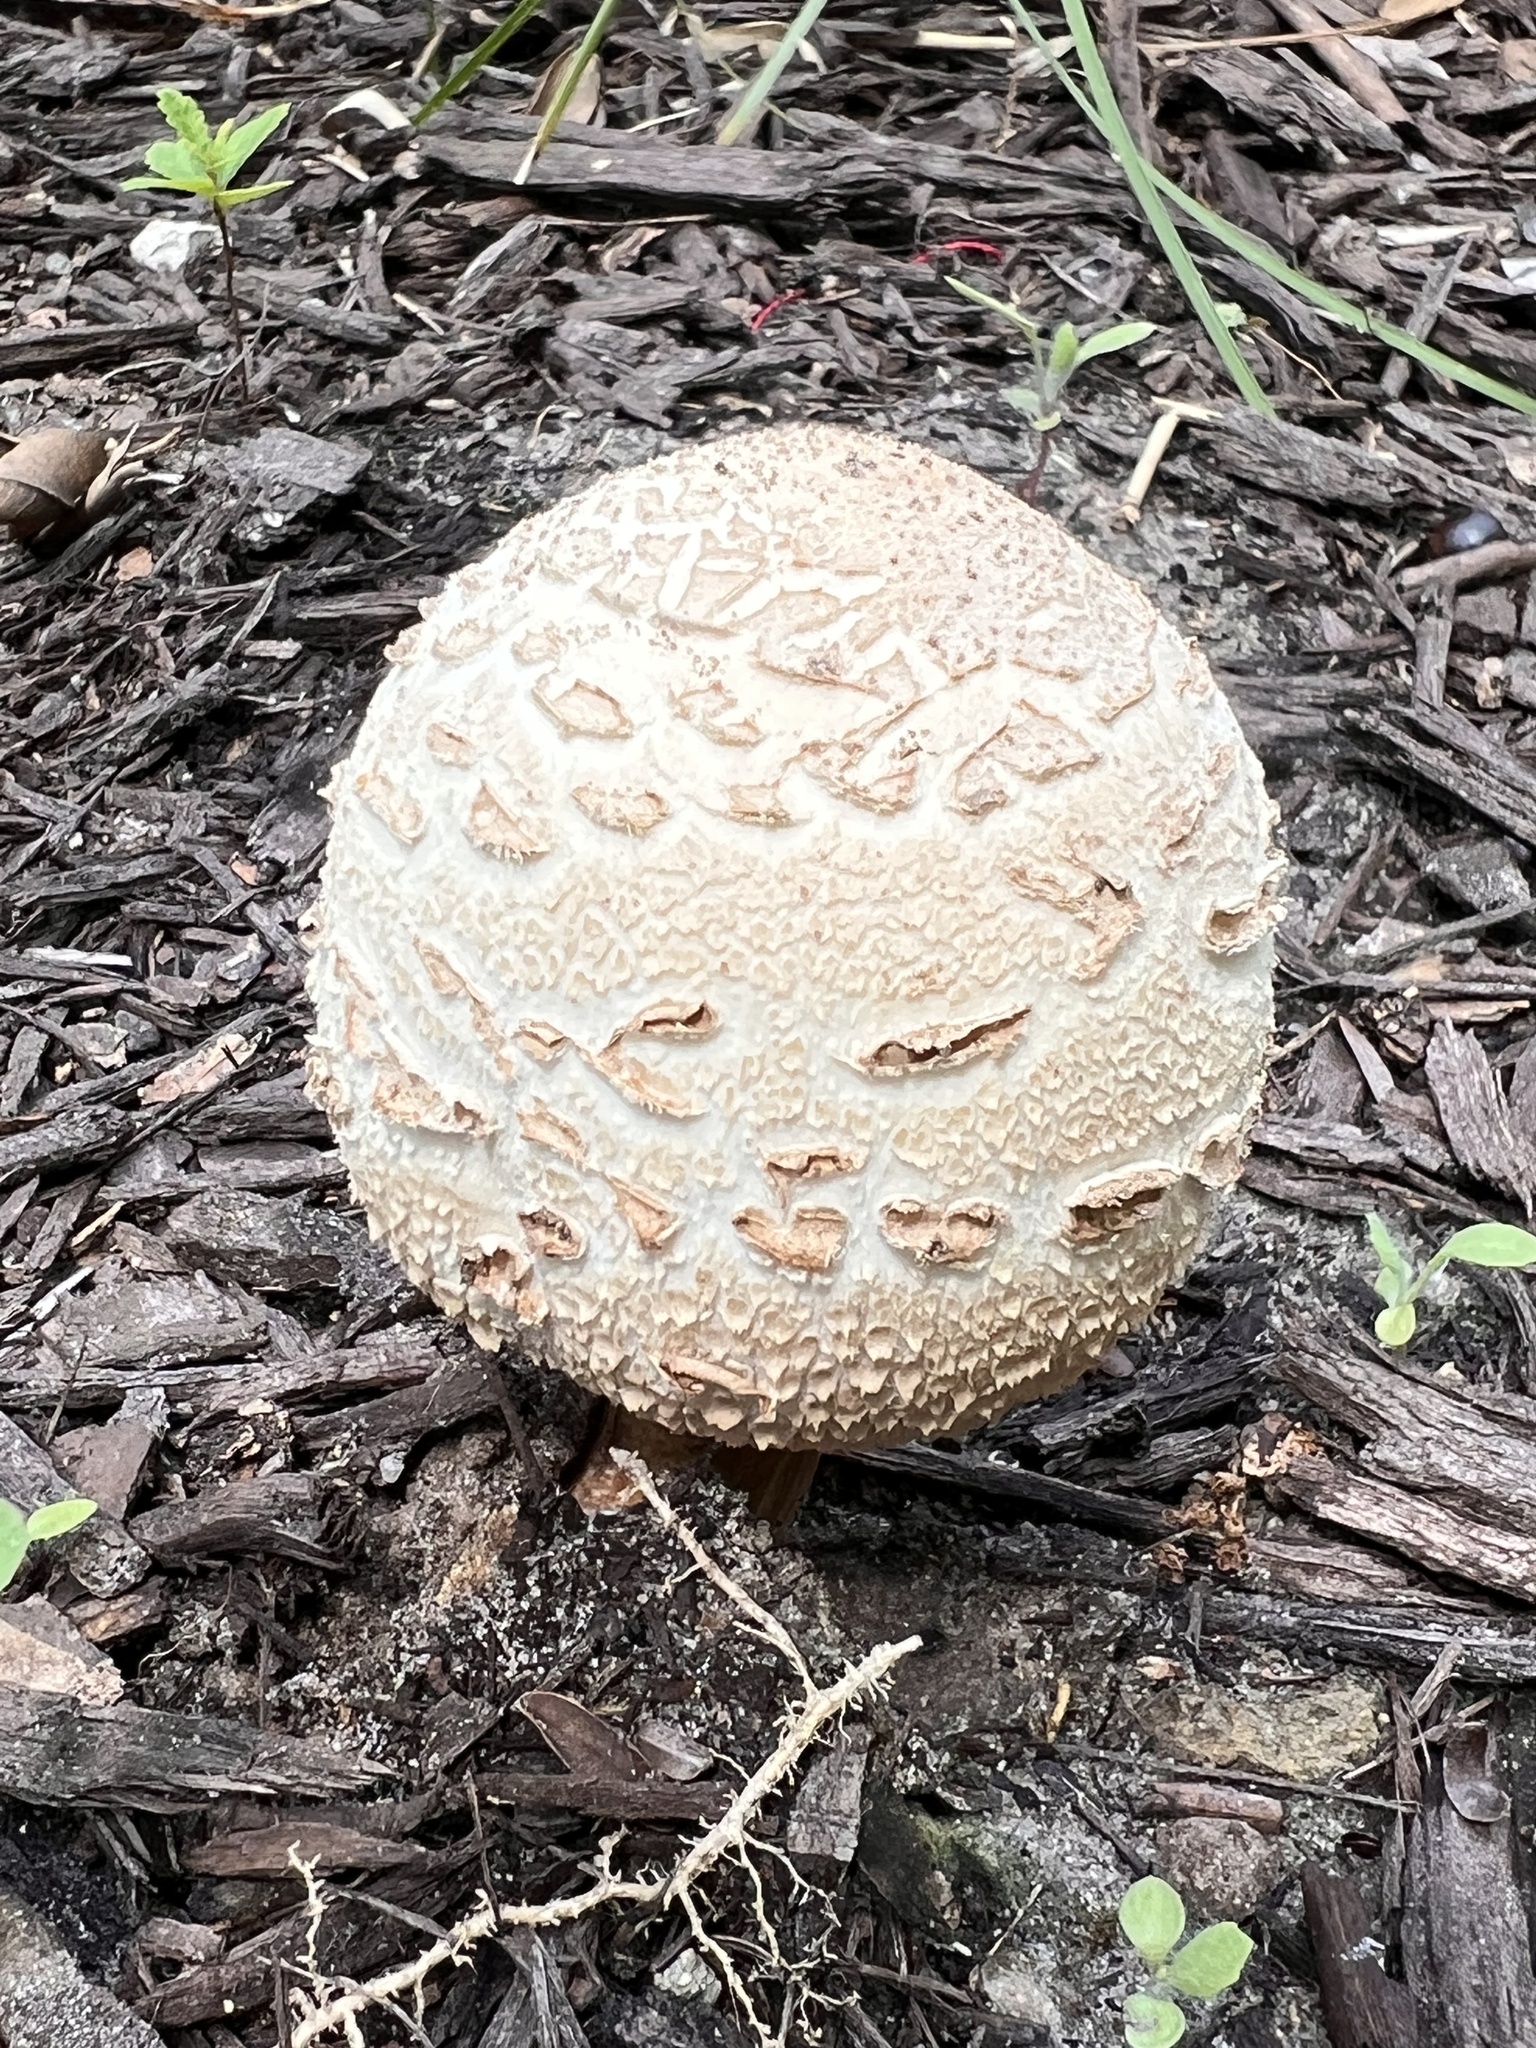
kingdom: Fungi
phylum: Basidiomycota
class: Agaricomycetes
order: Agaricales
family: Agaricaceae
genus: Chlorophyllum
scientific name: Chlorophyllum molybdites
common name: False parasol
